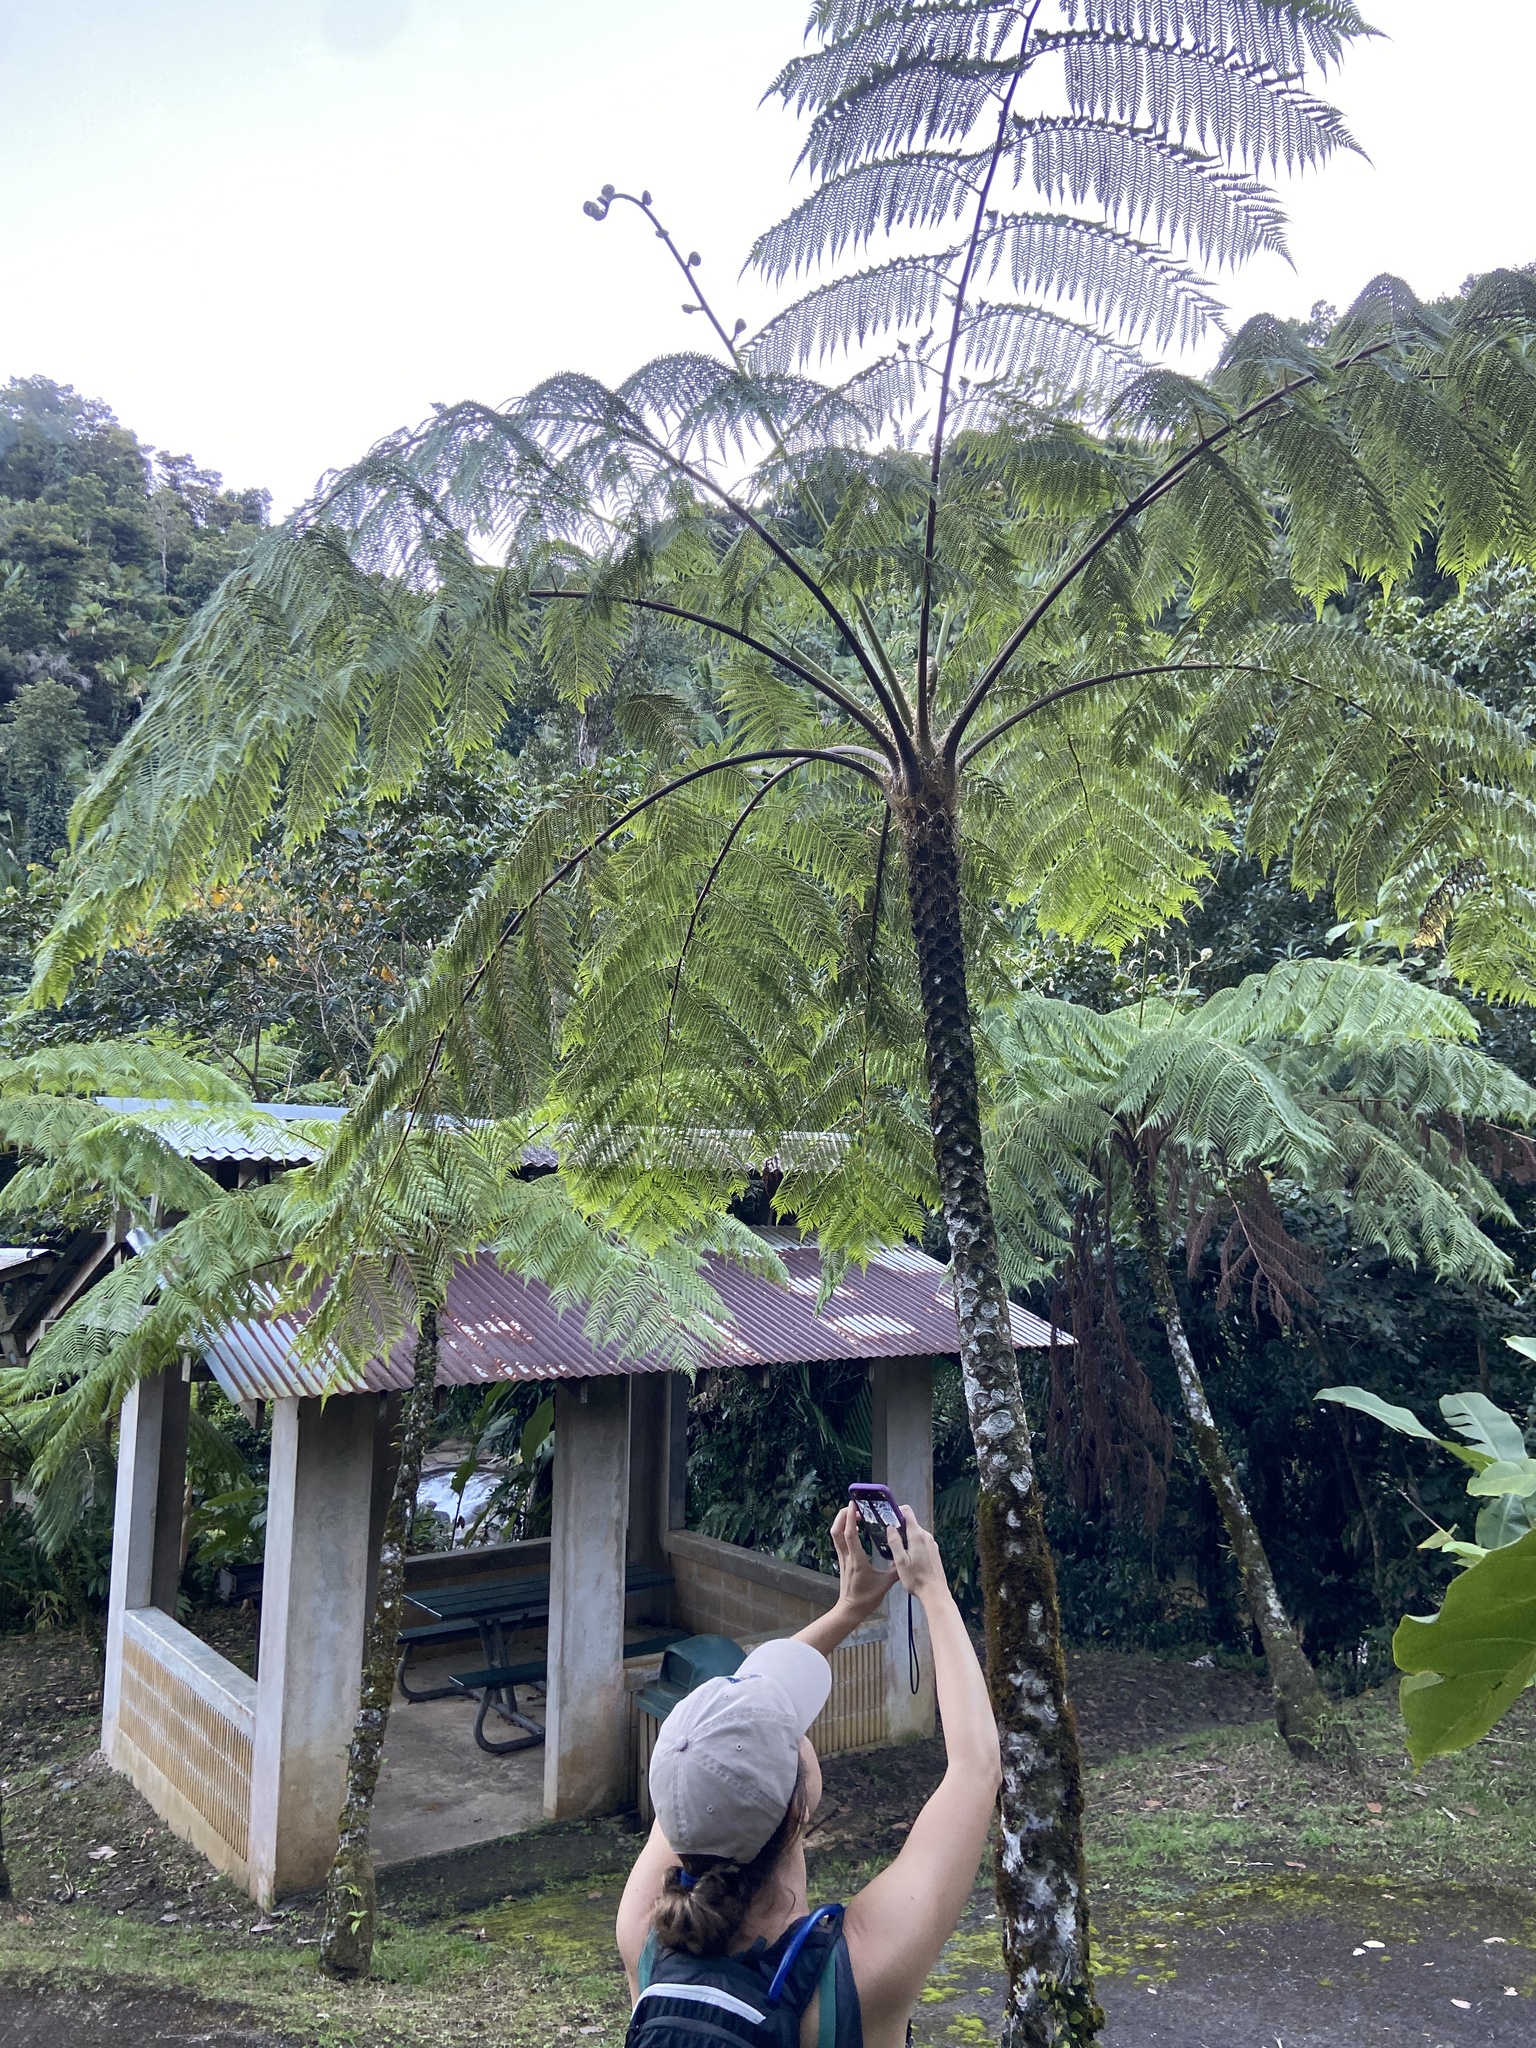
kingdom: Plantae
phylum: Tracheophyta
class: Polypodiopsida
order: Cyatheales
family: Cyatheaceae
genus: Cyathea
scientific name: Cyathea arborea
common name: West indian treefern
